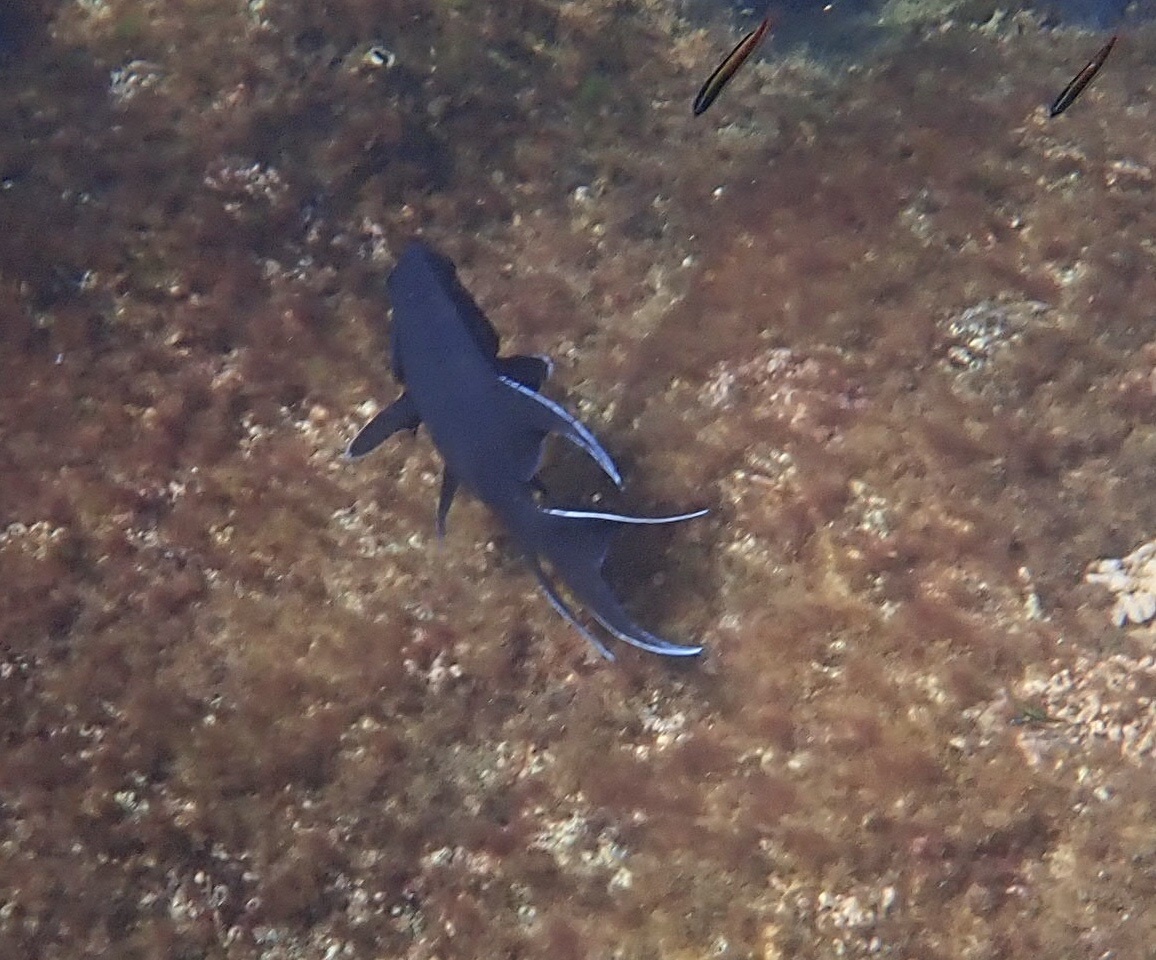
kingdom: Animalia
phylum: Chordata
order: Perciformes
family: Pomacentridae
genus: Microspathodon
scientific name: Microspathodon dorsalis
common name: Giant damselfish
